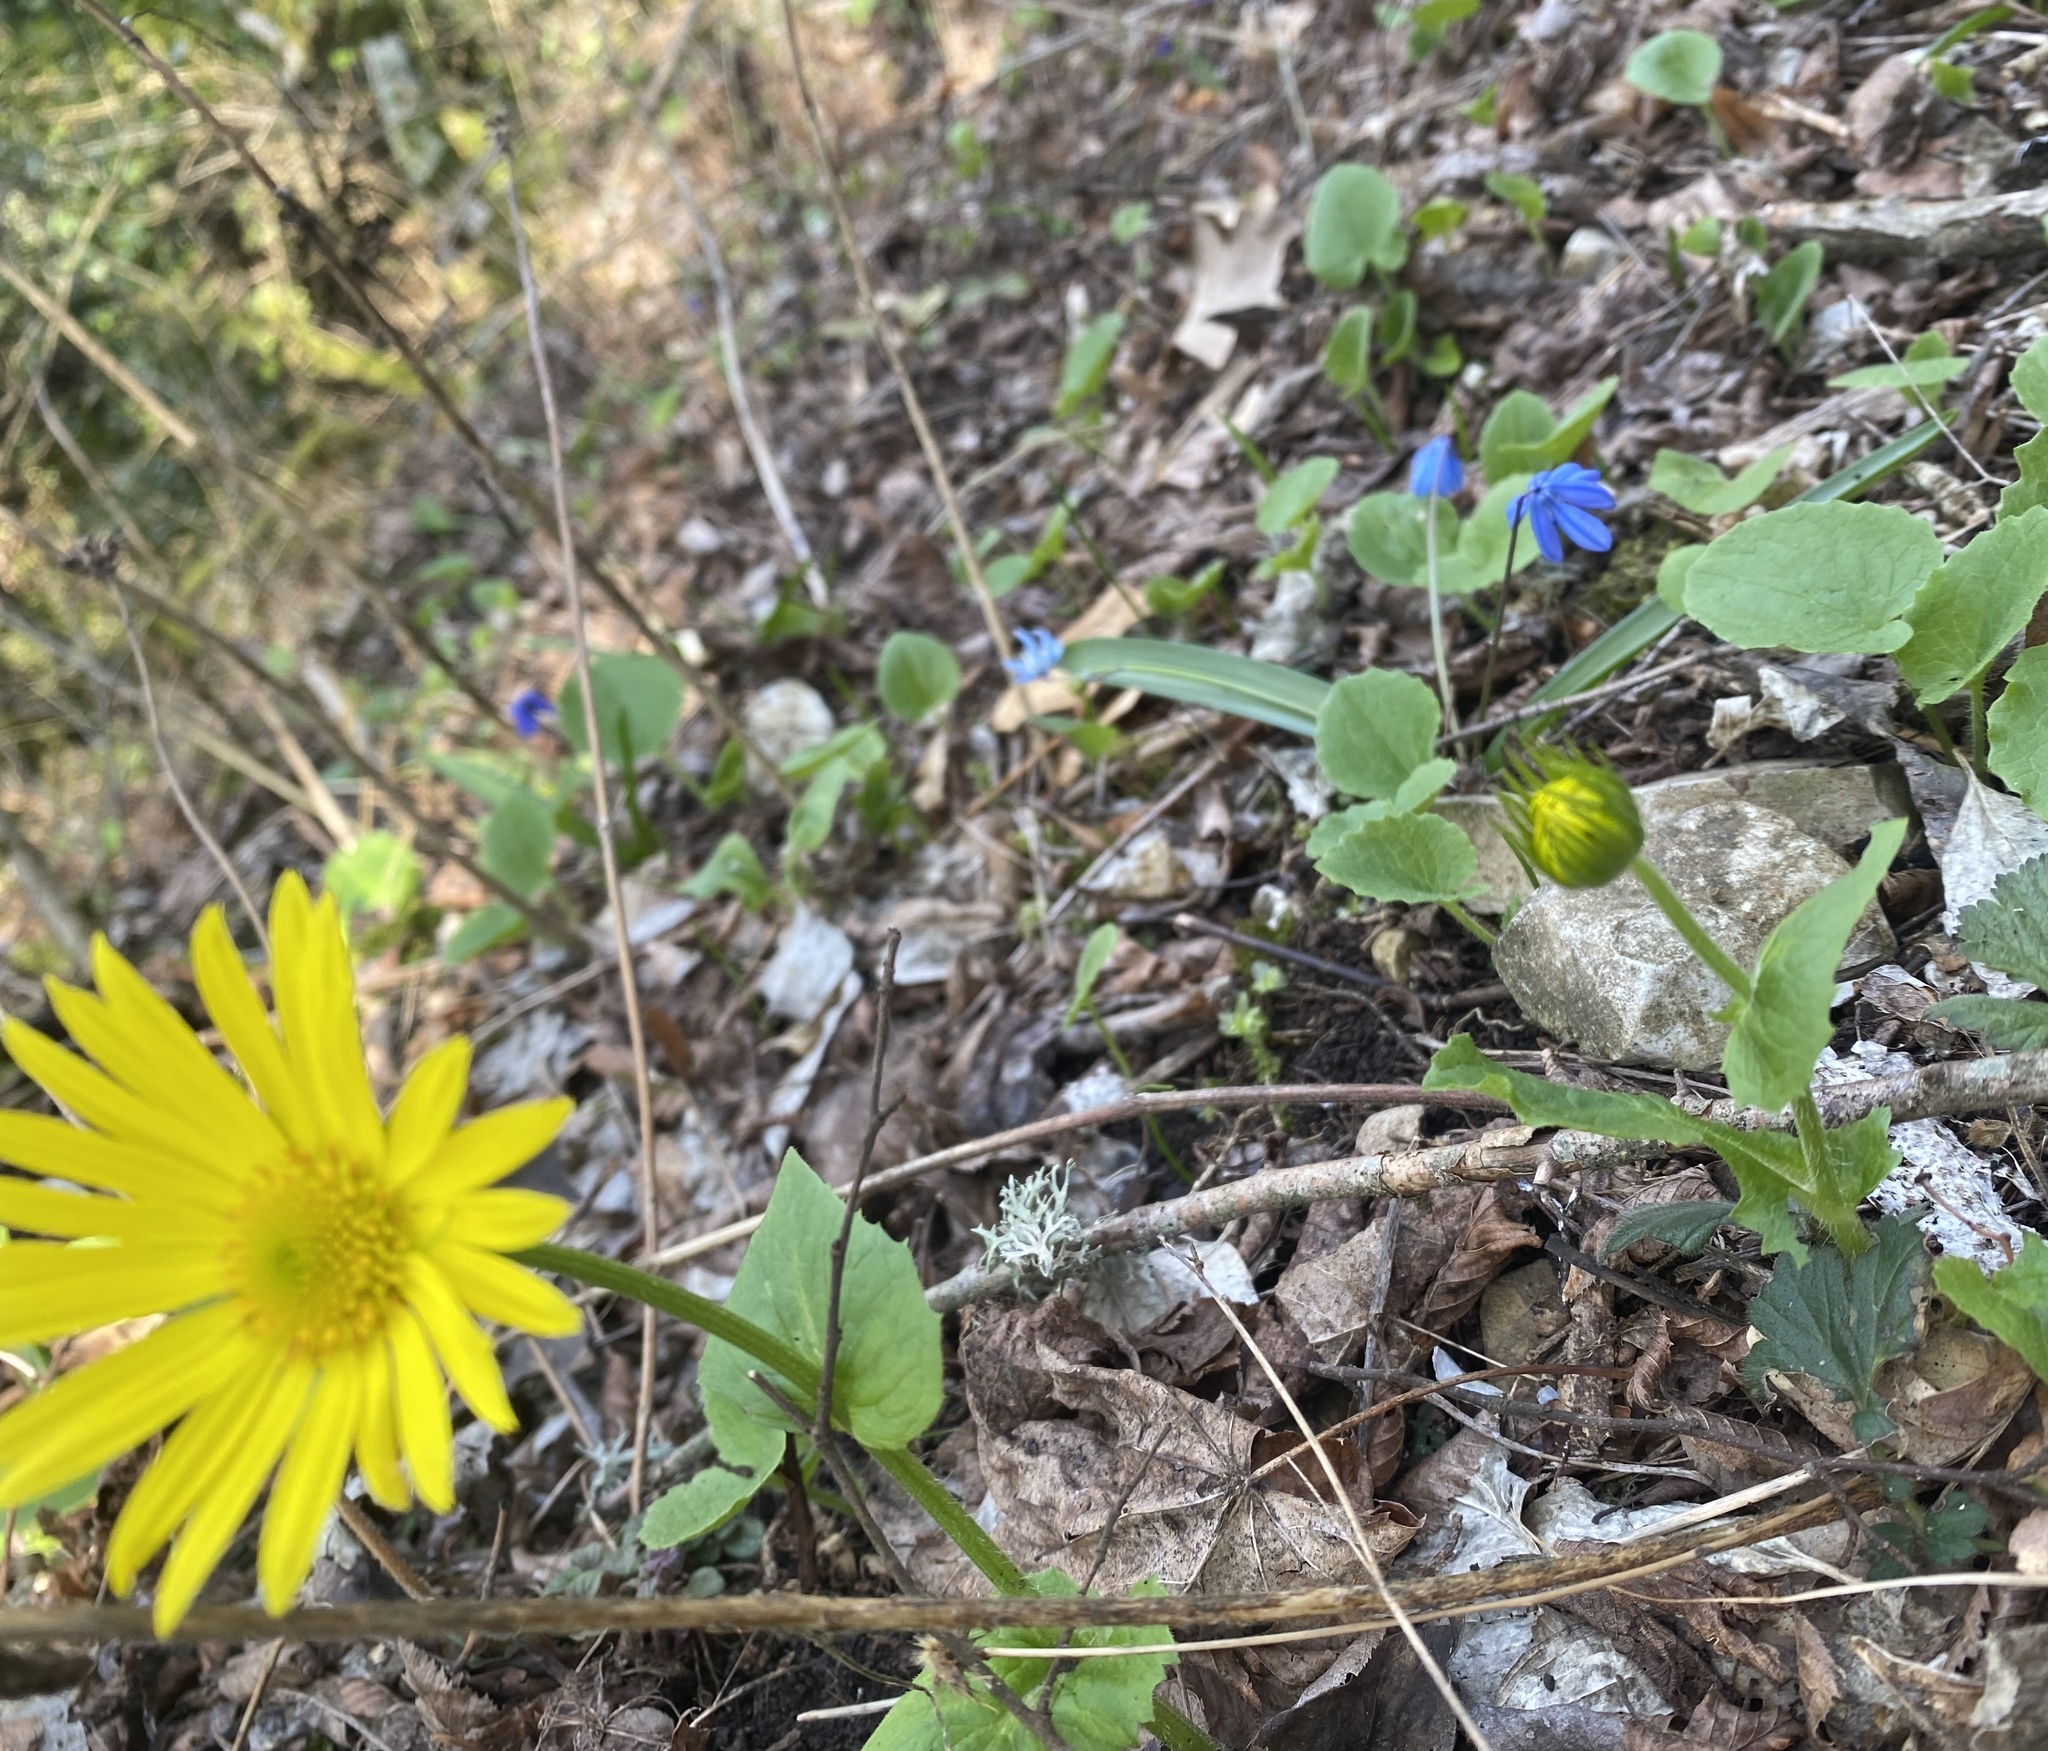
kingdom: Plantae
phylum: Tracheophyta
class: Magnoliopsida
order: Asterales
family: Asteraceae
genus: Doronicum
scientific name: Doronicum
